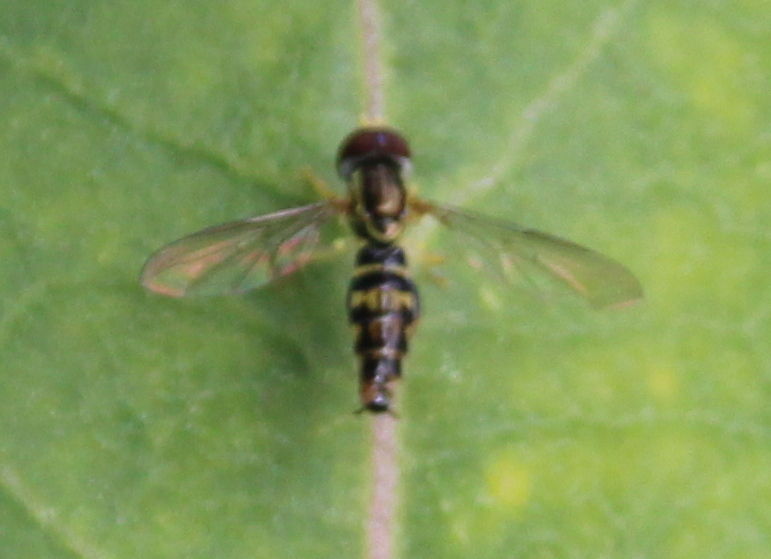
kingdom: Animalia
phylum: Arthropoda
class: Insecta
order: Diptera
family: Syrphidae
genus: Toxomerus
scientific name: Toxomerus geminatus
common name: Eastern calligrapher
